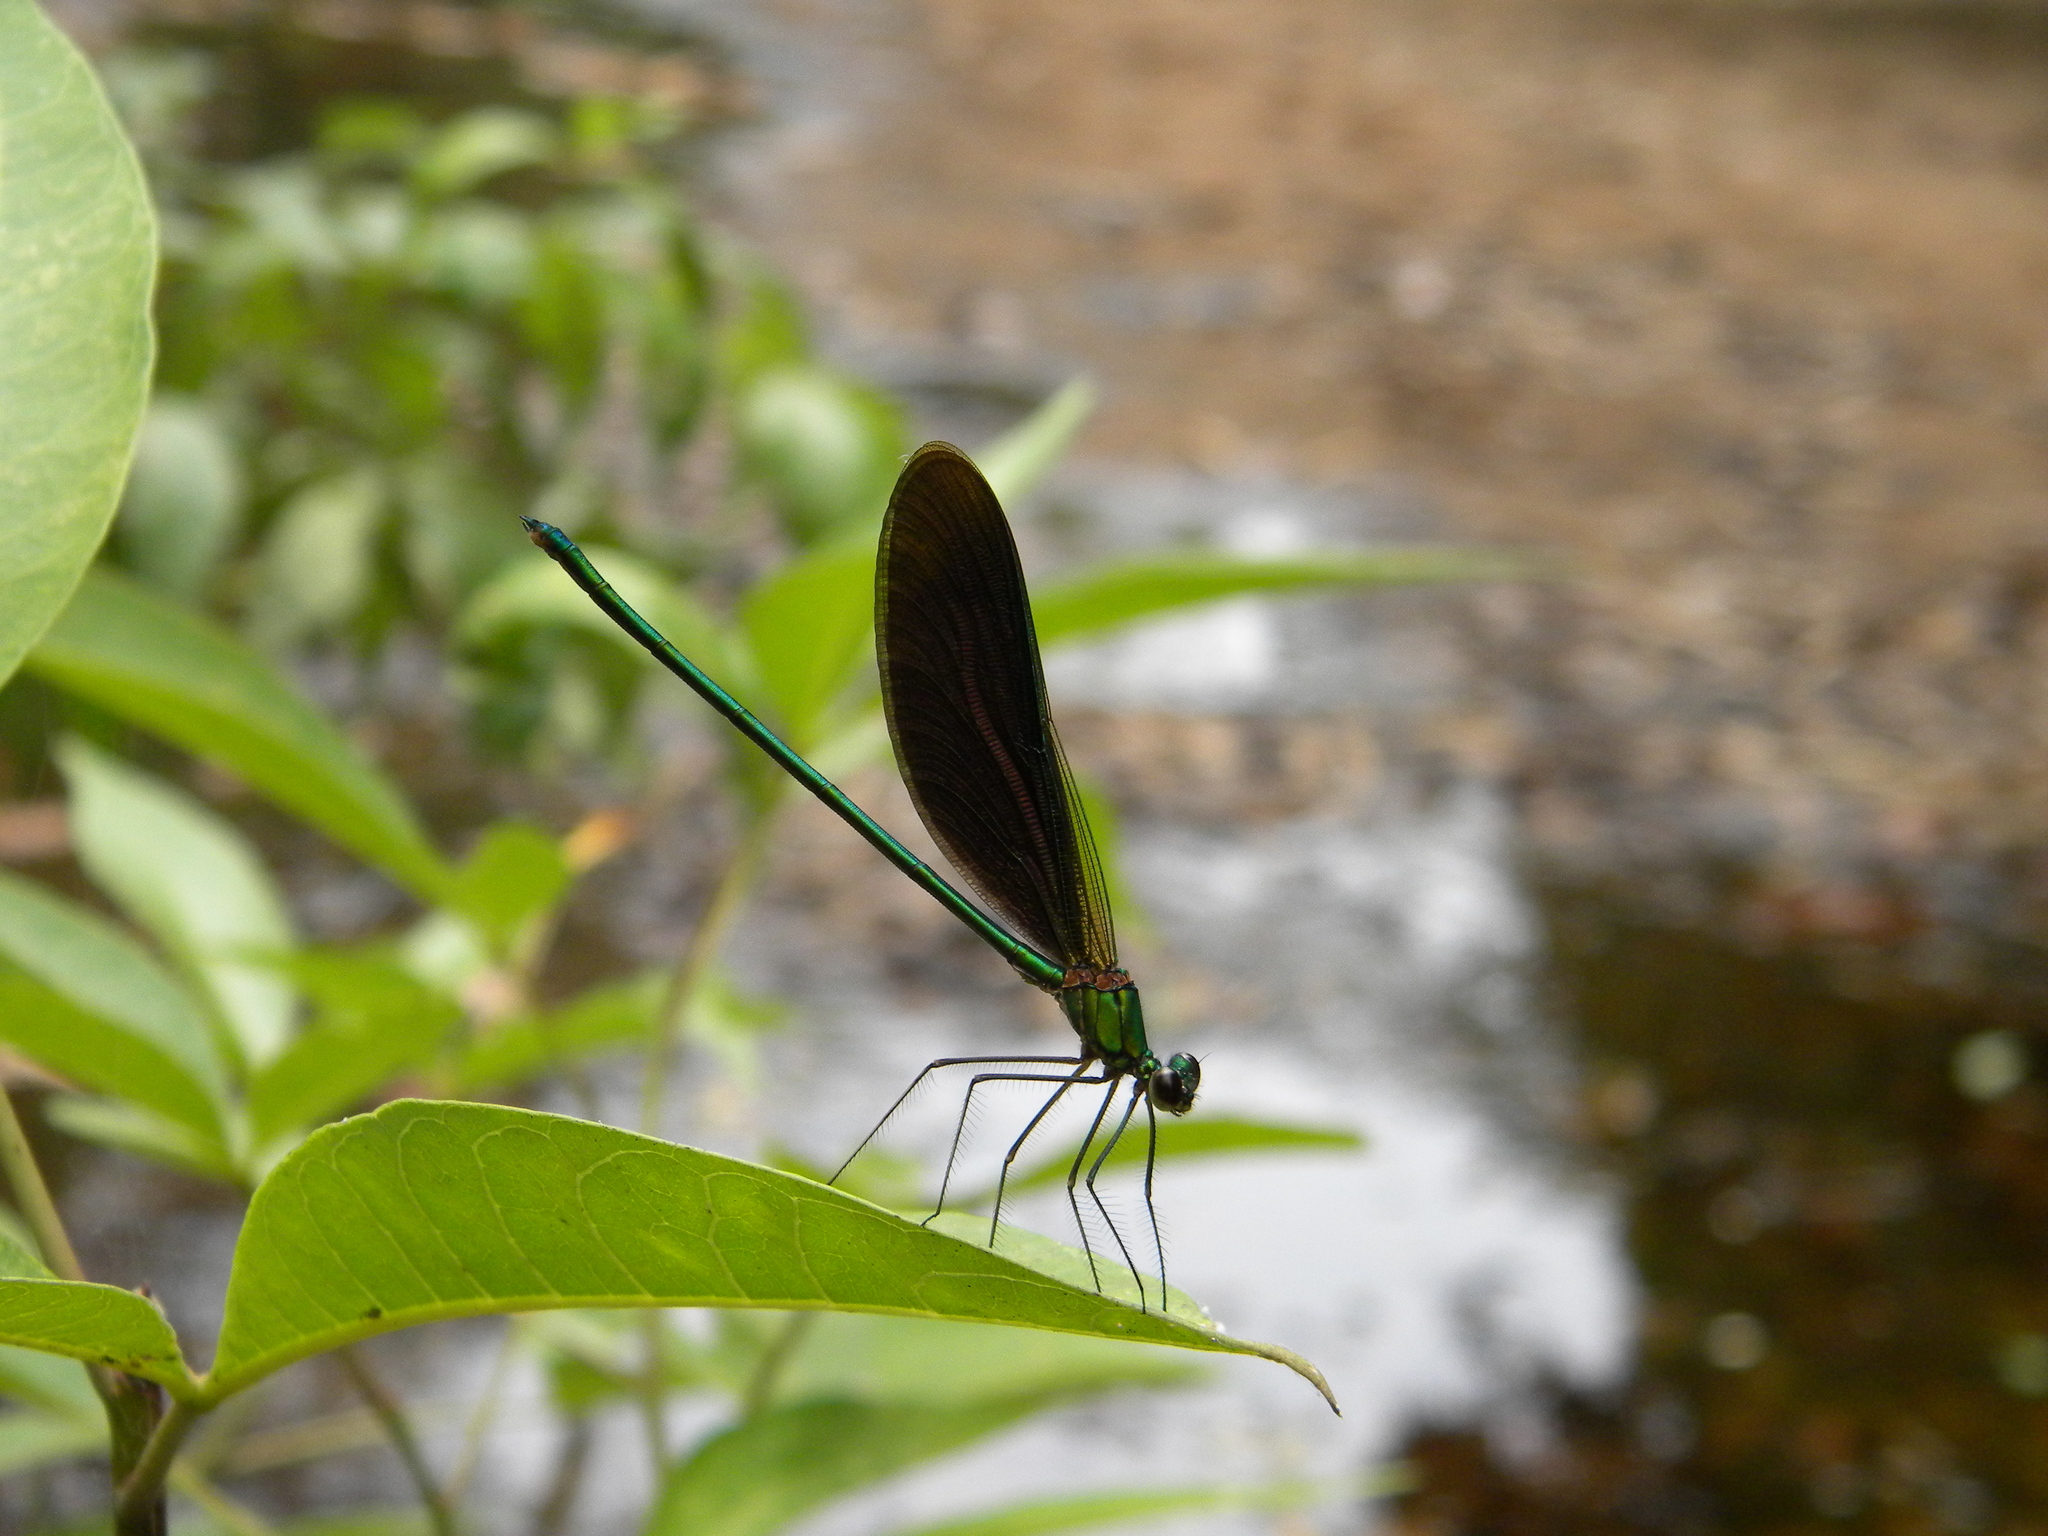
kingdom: Animalia
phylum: Arthropoda
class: Insecta
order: Odonata
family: Calopterygidae
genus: Neurobasis
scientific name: Neurobasis chinensis
